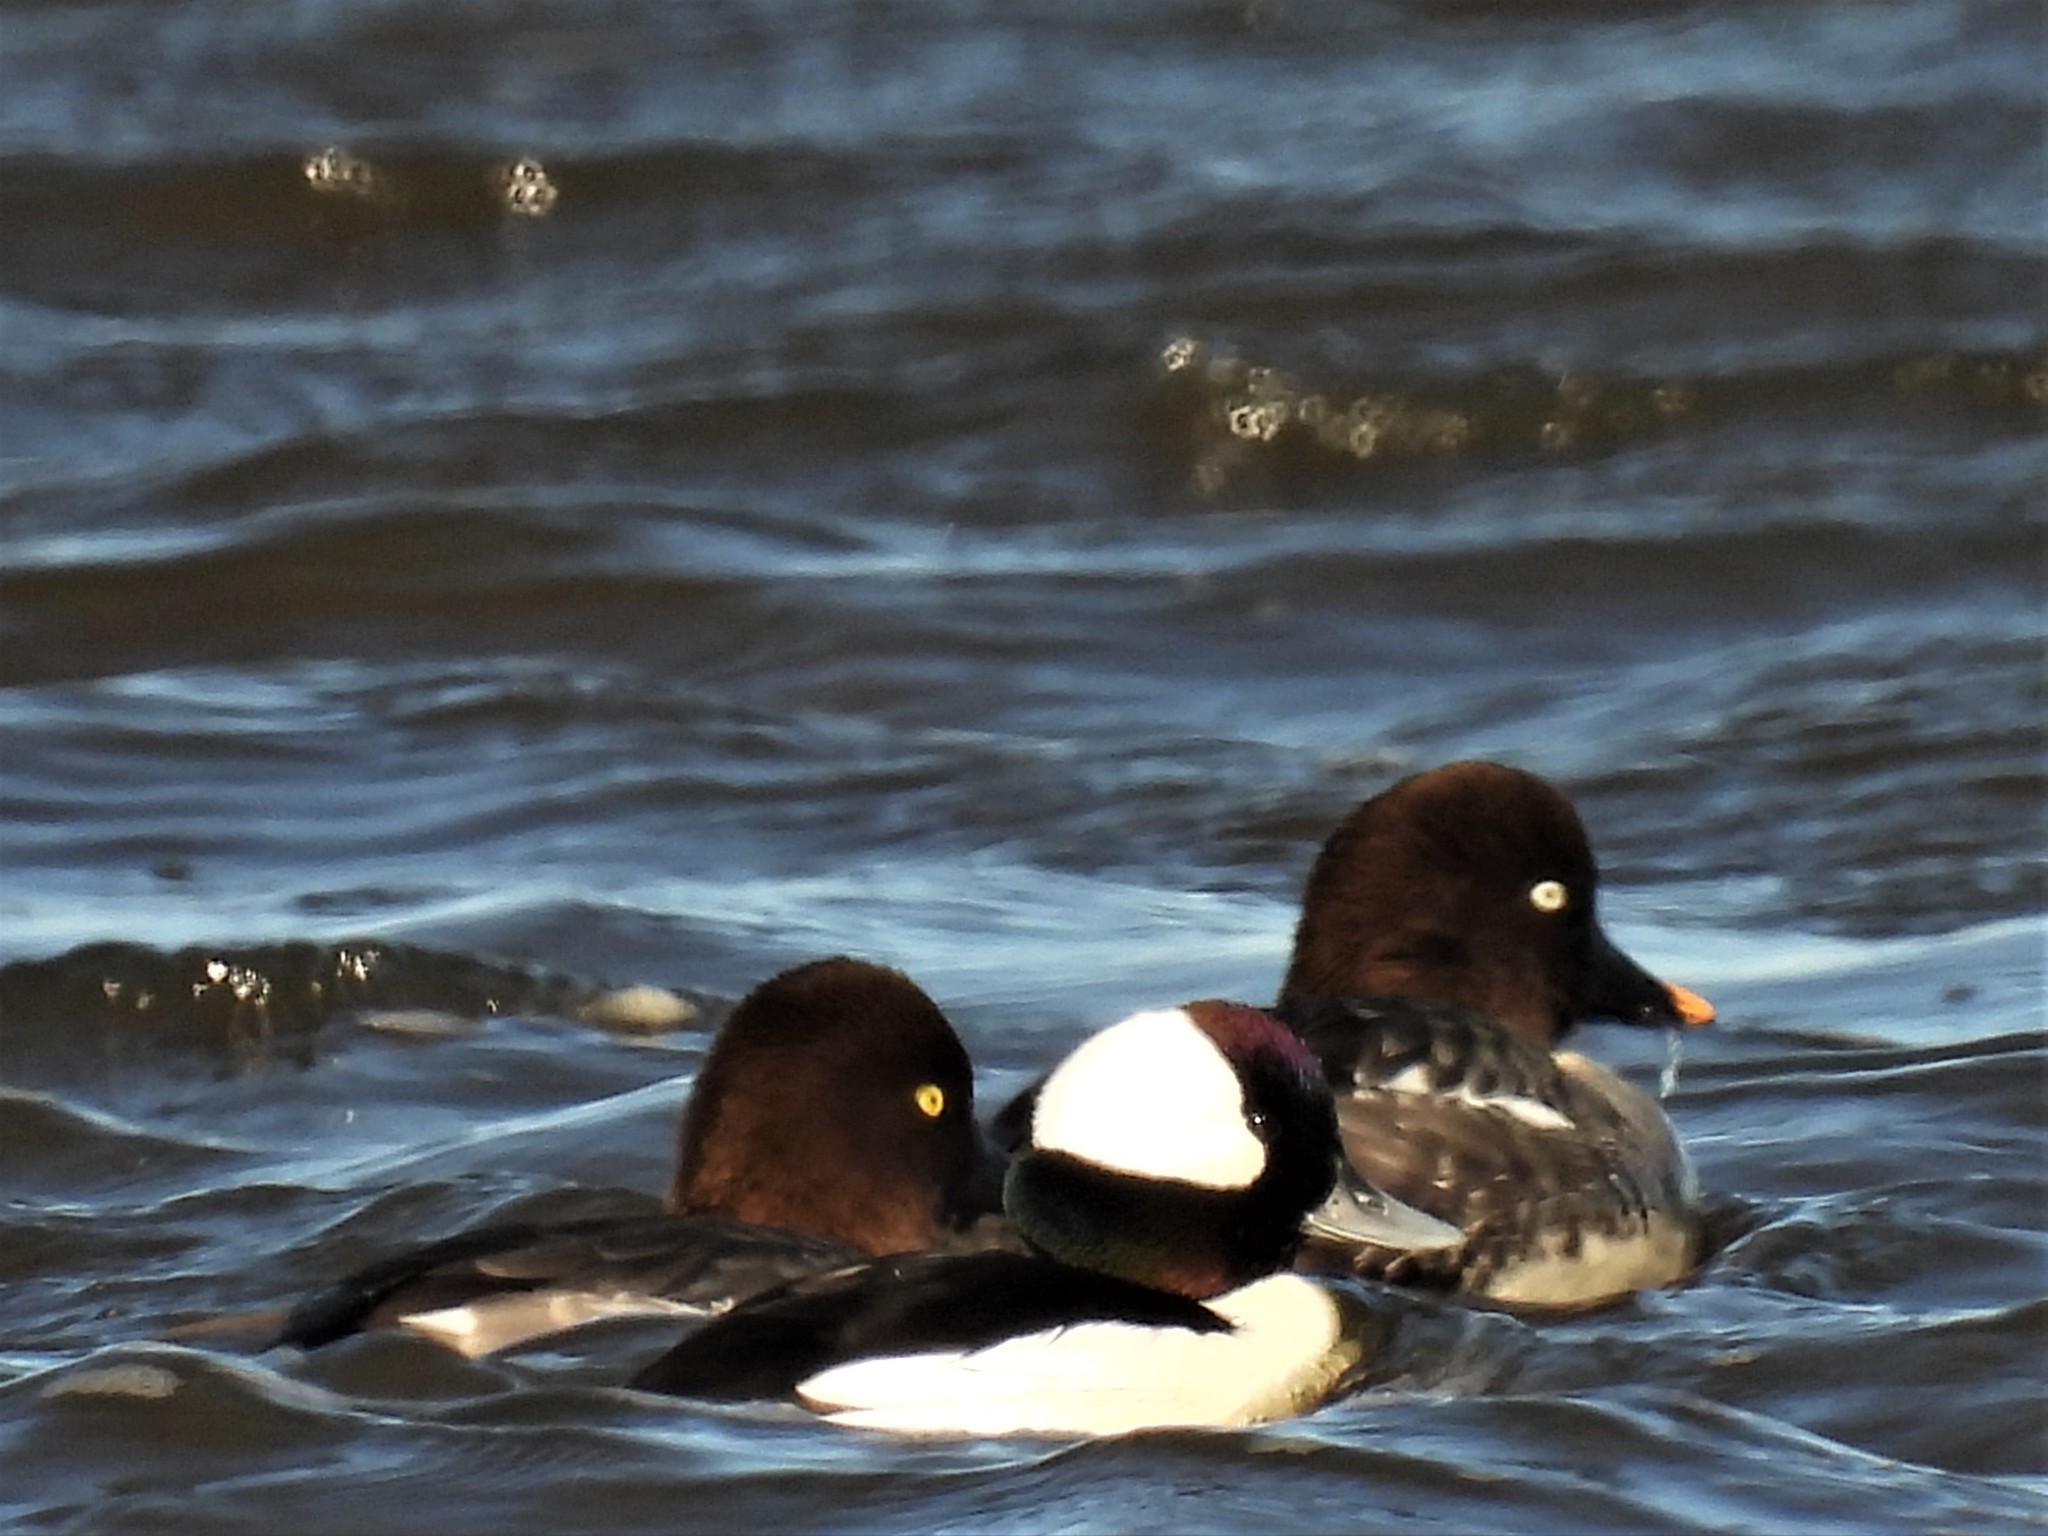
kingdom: Animalia
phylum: Chordata
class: Aves
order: Anseriformes
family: Anatidae
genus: Bucephala
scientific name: Bucephala clangula
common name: Common goldeneye
